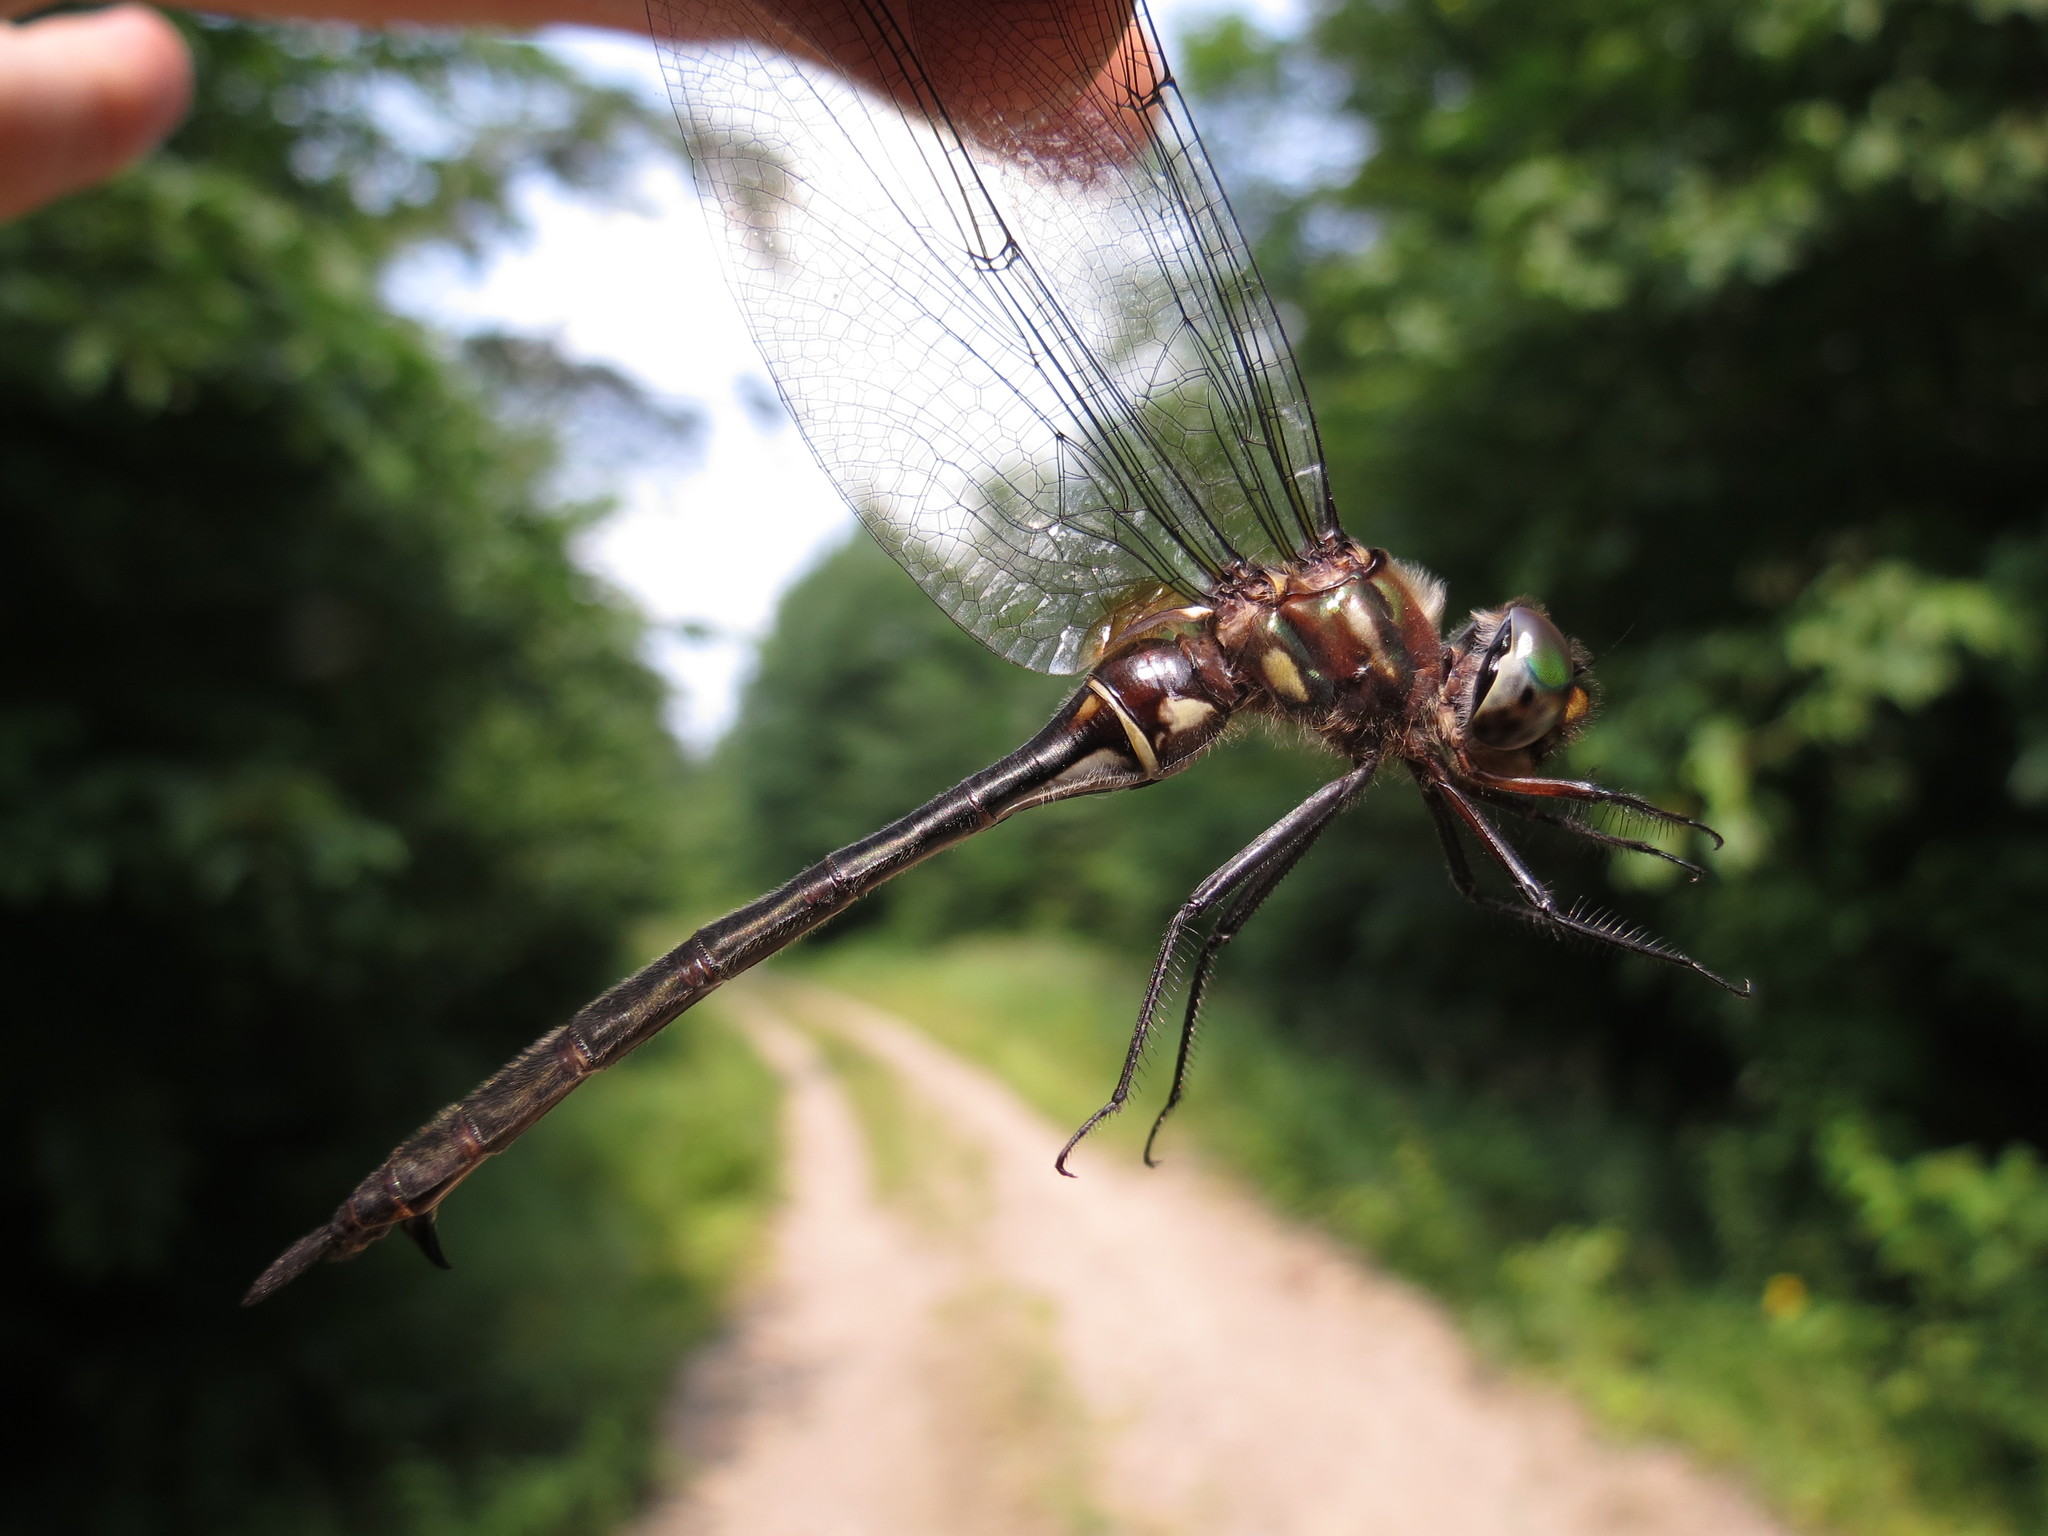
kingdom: Animalia
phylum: Arthropoda
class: Insecta
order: Odonata
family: Corduliidae
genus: Somatochlora
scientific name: Somatochlora tenebrosa
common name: Clamp-tipped emerald
